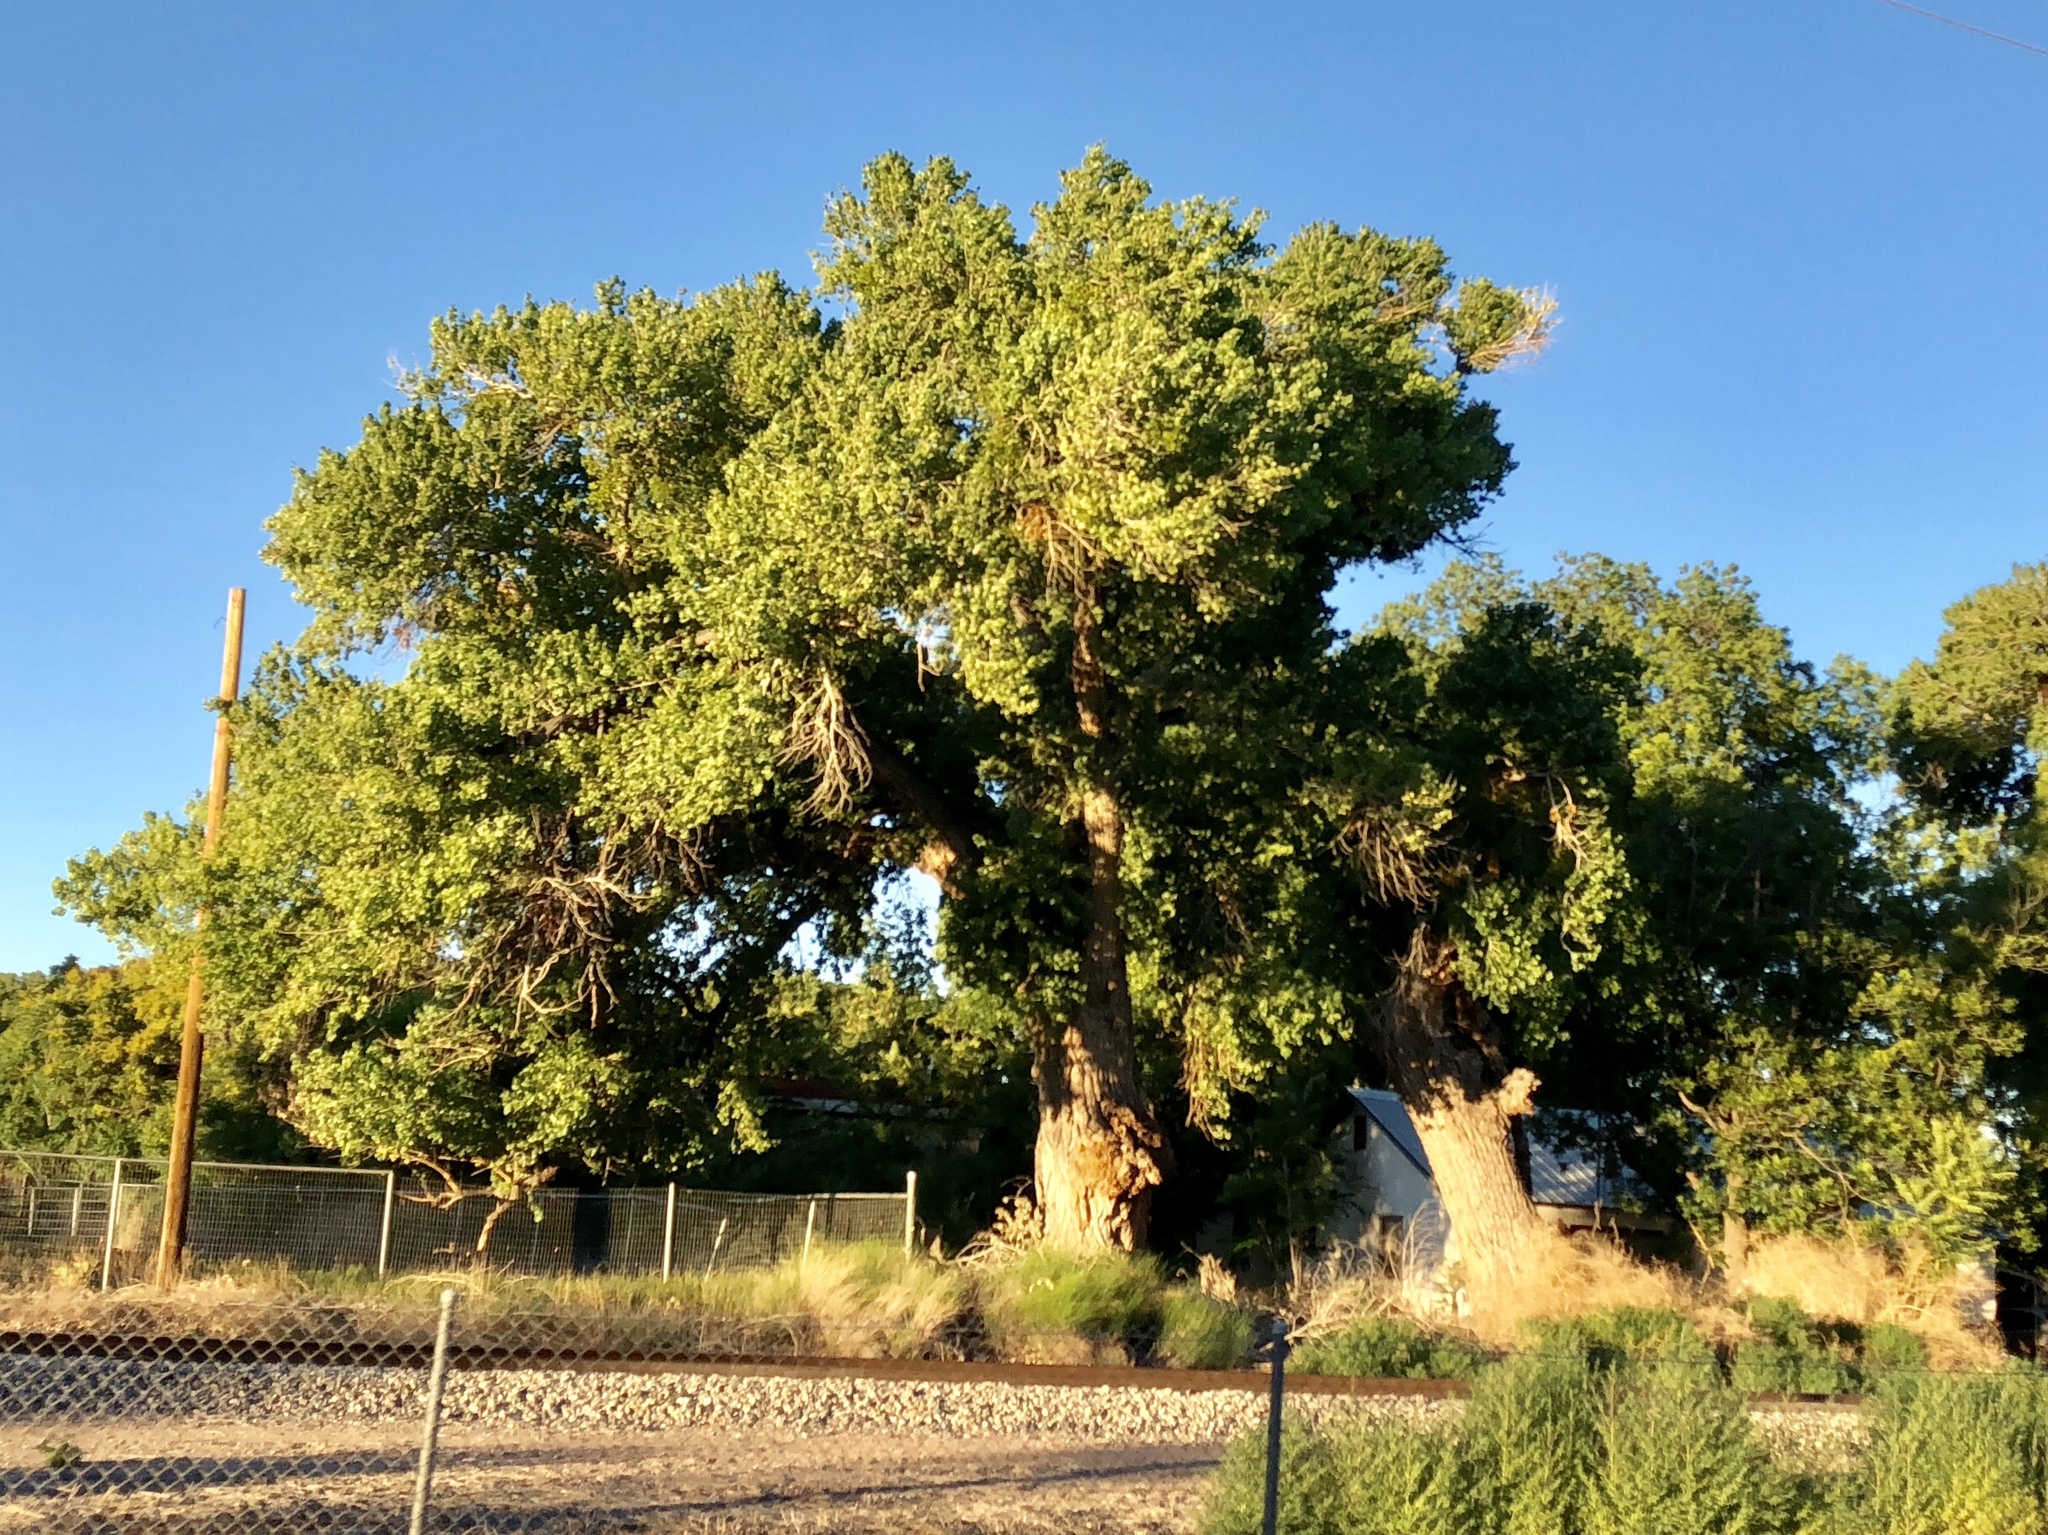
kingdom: Plantae
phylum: Tracheophyta
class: Magnoliopsida
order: Malpighiales
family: Salicaceae
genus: Populus
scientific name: Populus fremontii
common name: Fremont's cottonwood
